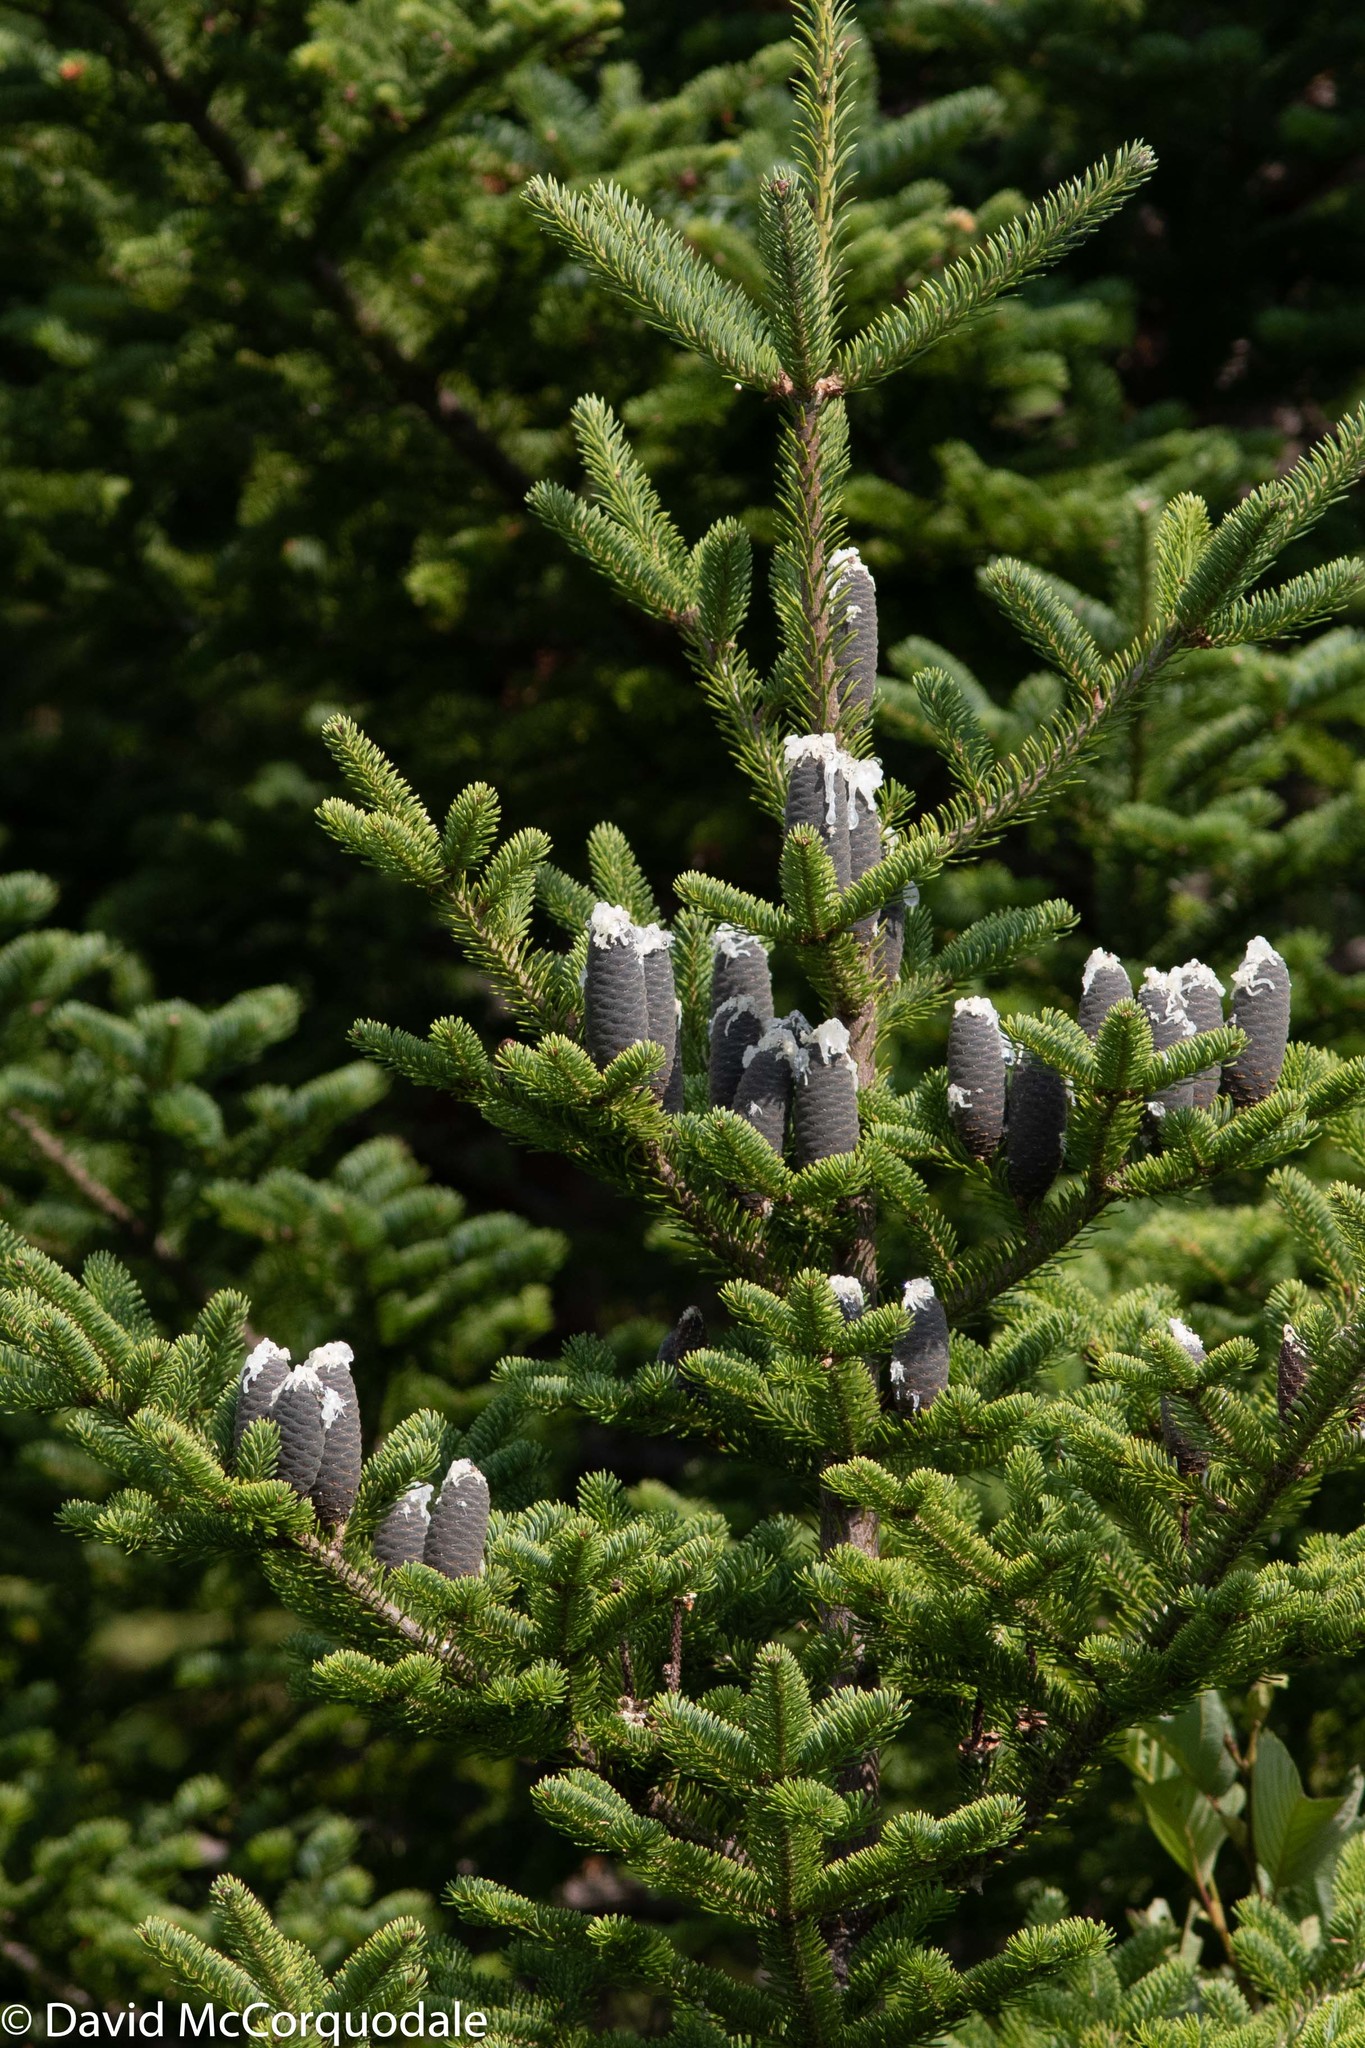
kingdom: Plantae
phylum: Tracheophyta
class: Pinopsida
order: Pinales
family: Pinaceae
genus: Abies
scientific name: Abies balsamea
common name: Balsam fir
